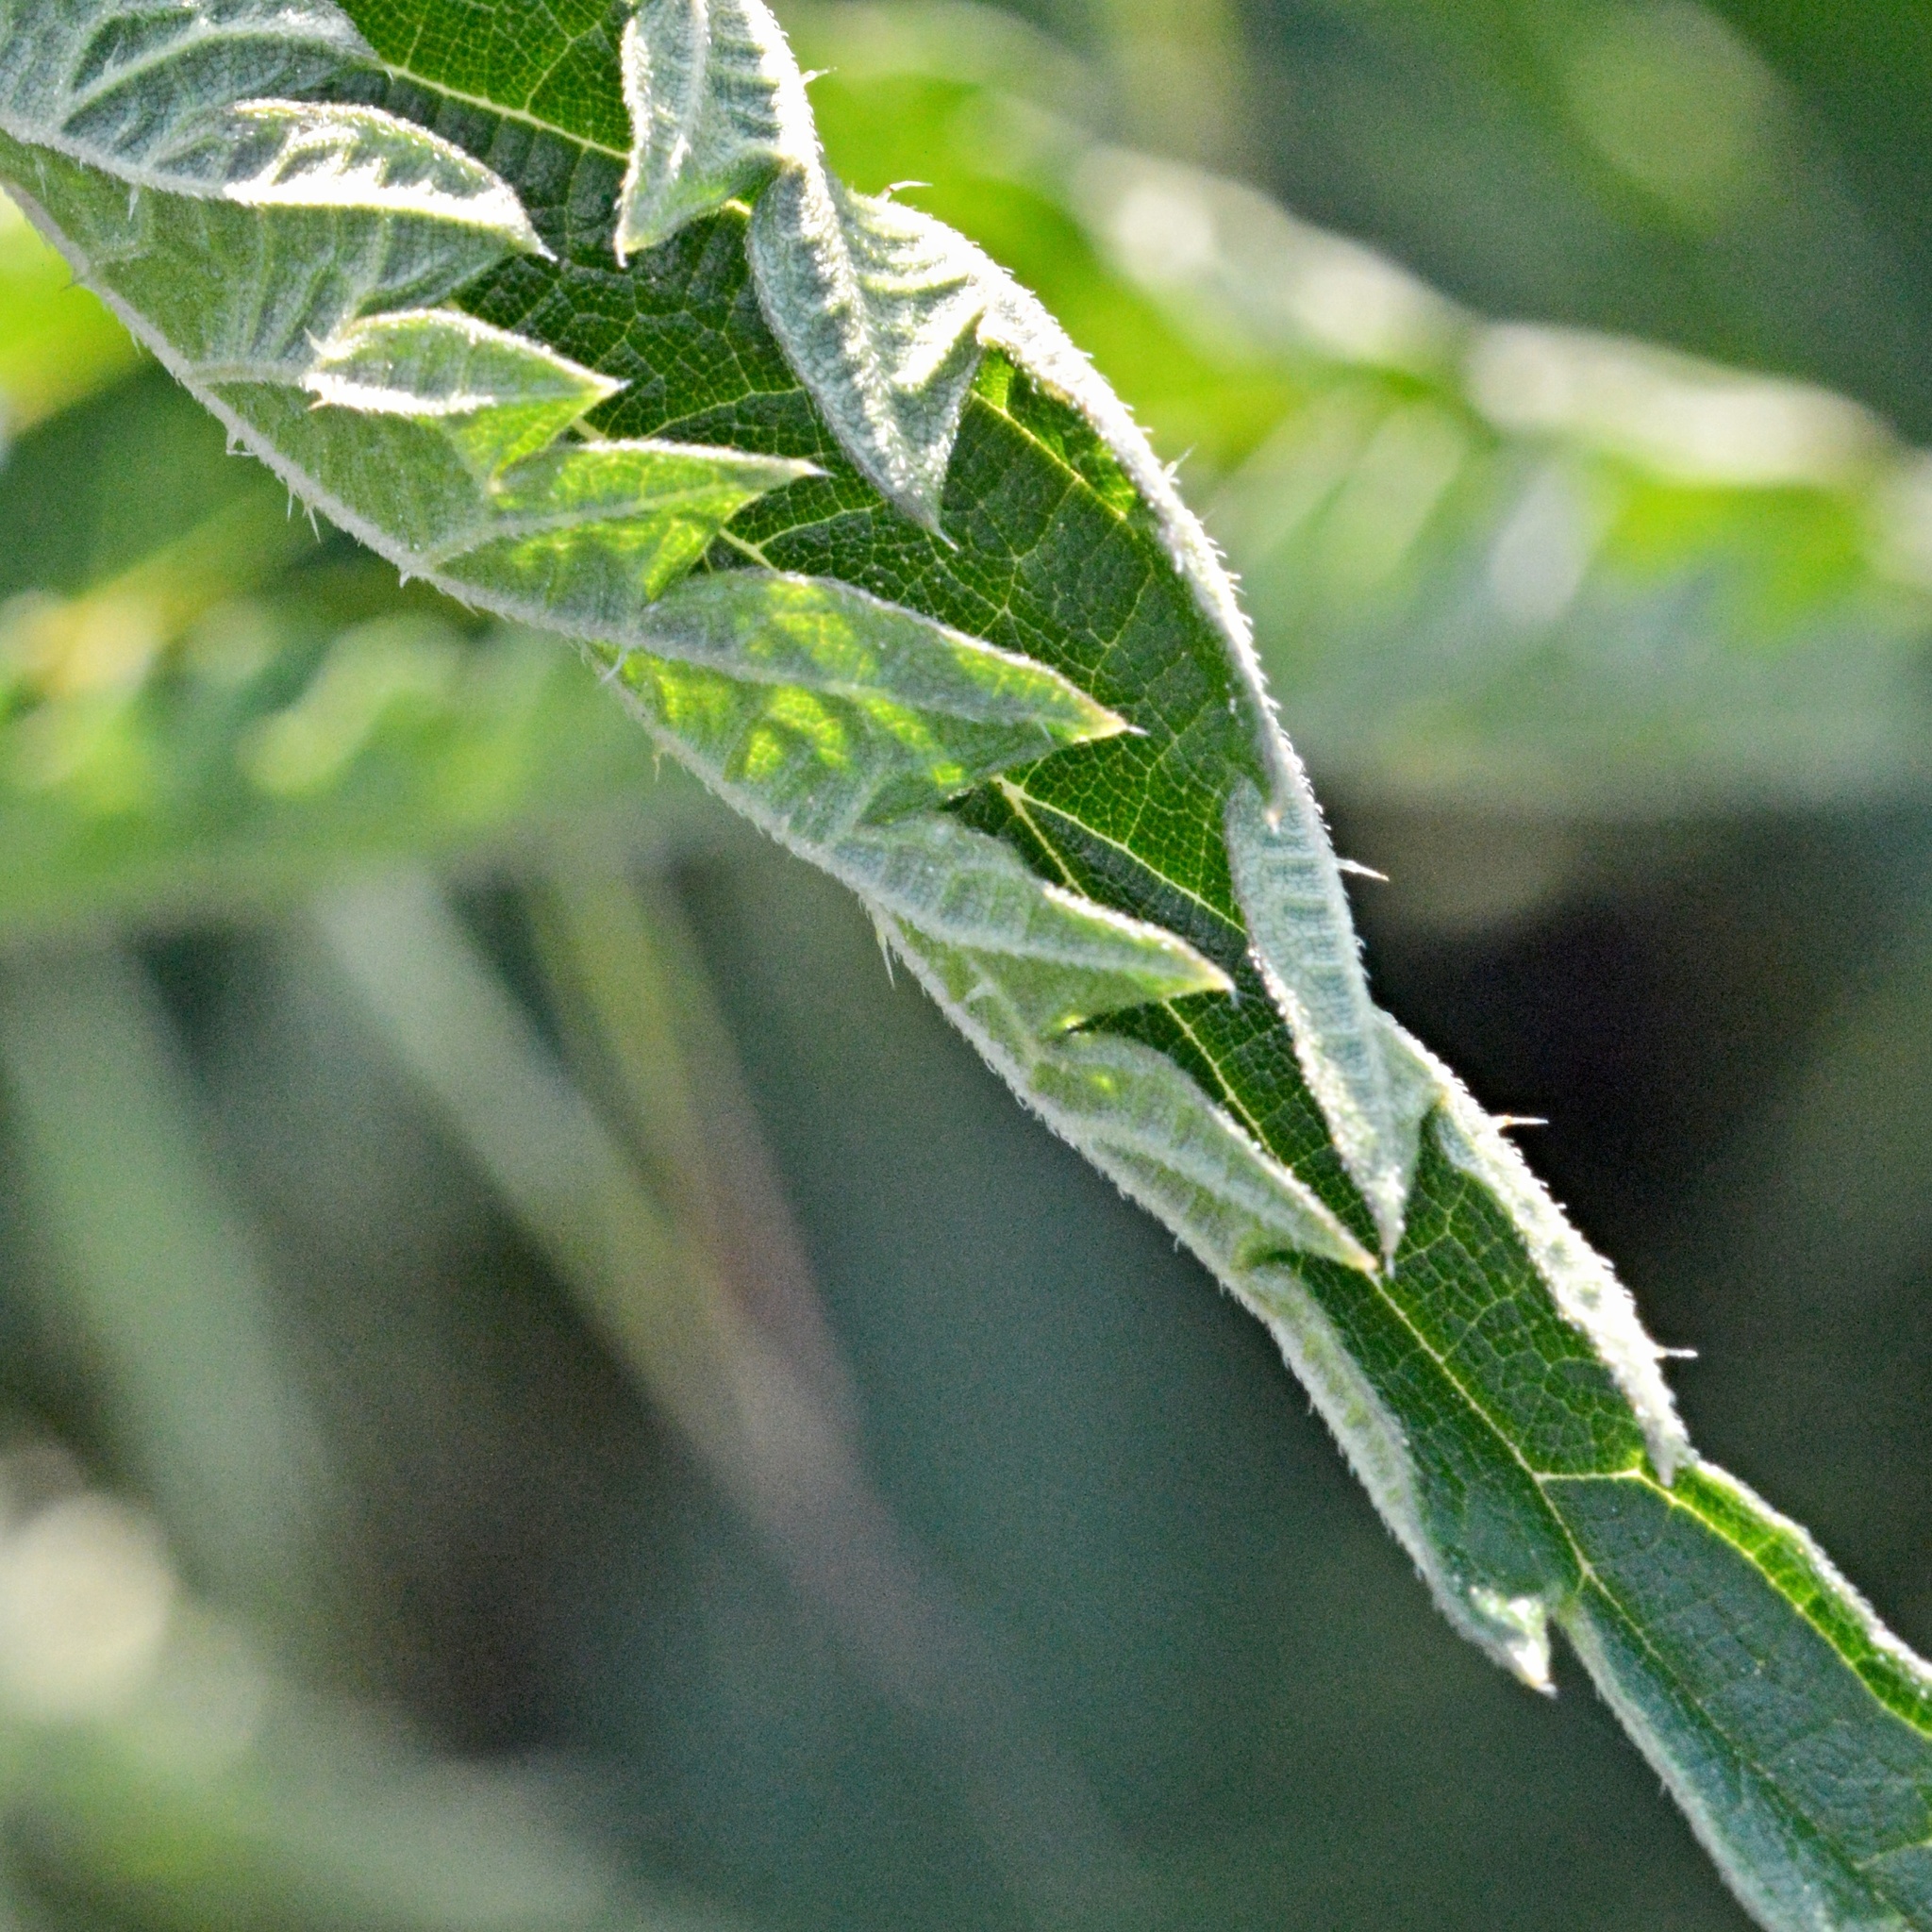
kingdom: Plantae
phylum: Tracheophyta
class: Magnoliopsida
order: Rosales
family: Urticaceae
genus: Urtica
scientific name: Urtica dioica
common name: Common nettle
